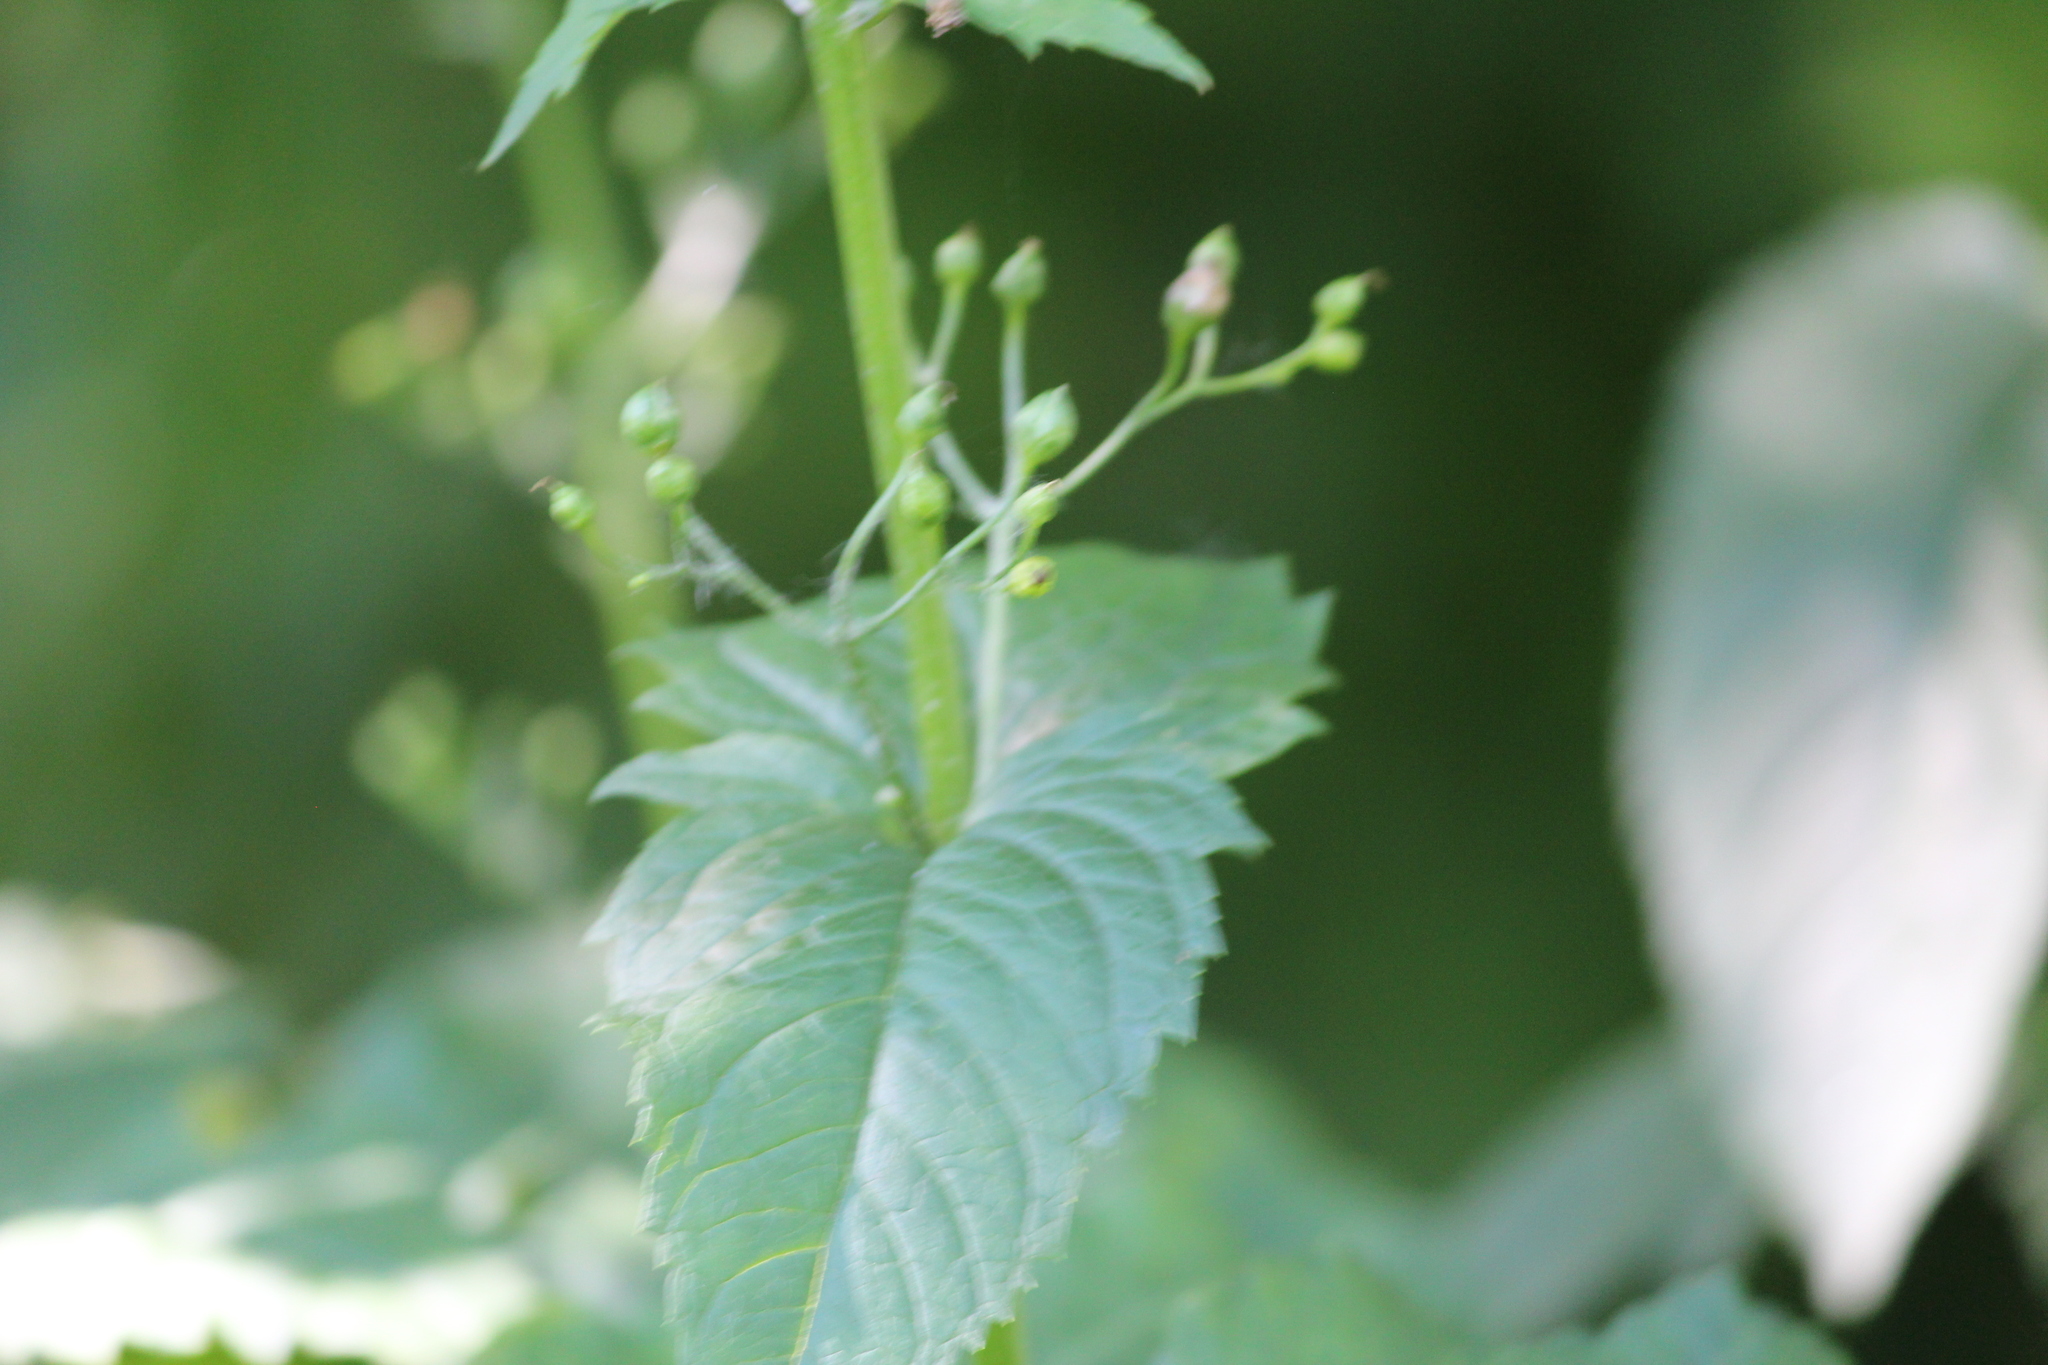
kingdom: Plantae
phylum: Tracheophyta
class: Magnoliopsida
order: Lamiales
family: Scrophulariaceae
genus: Scrophularia
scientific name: Scrophularia nodosa
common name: Common figwort
